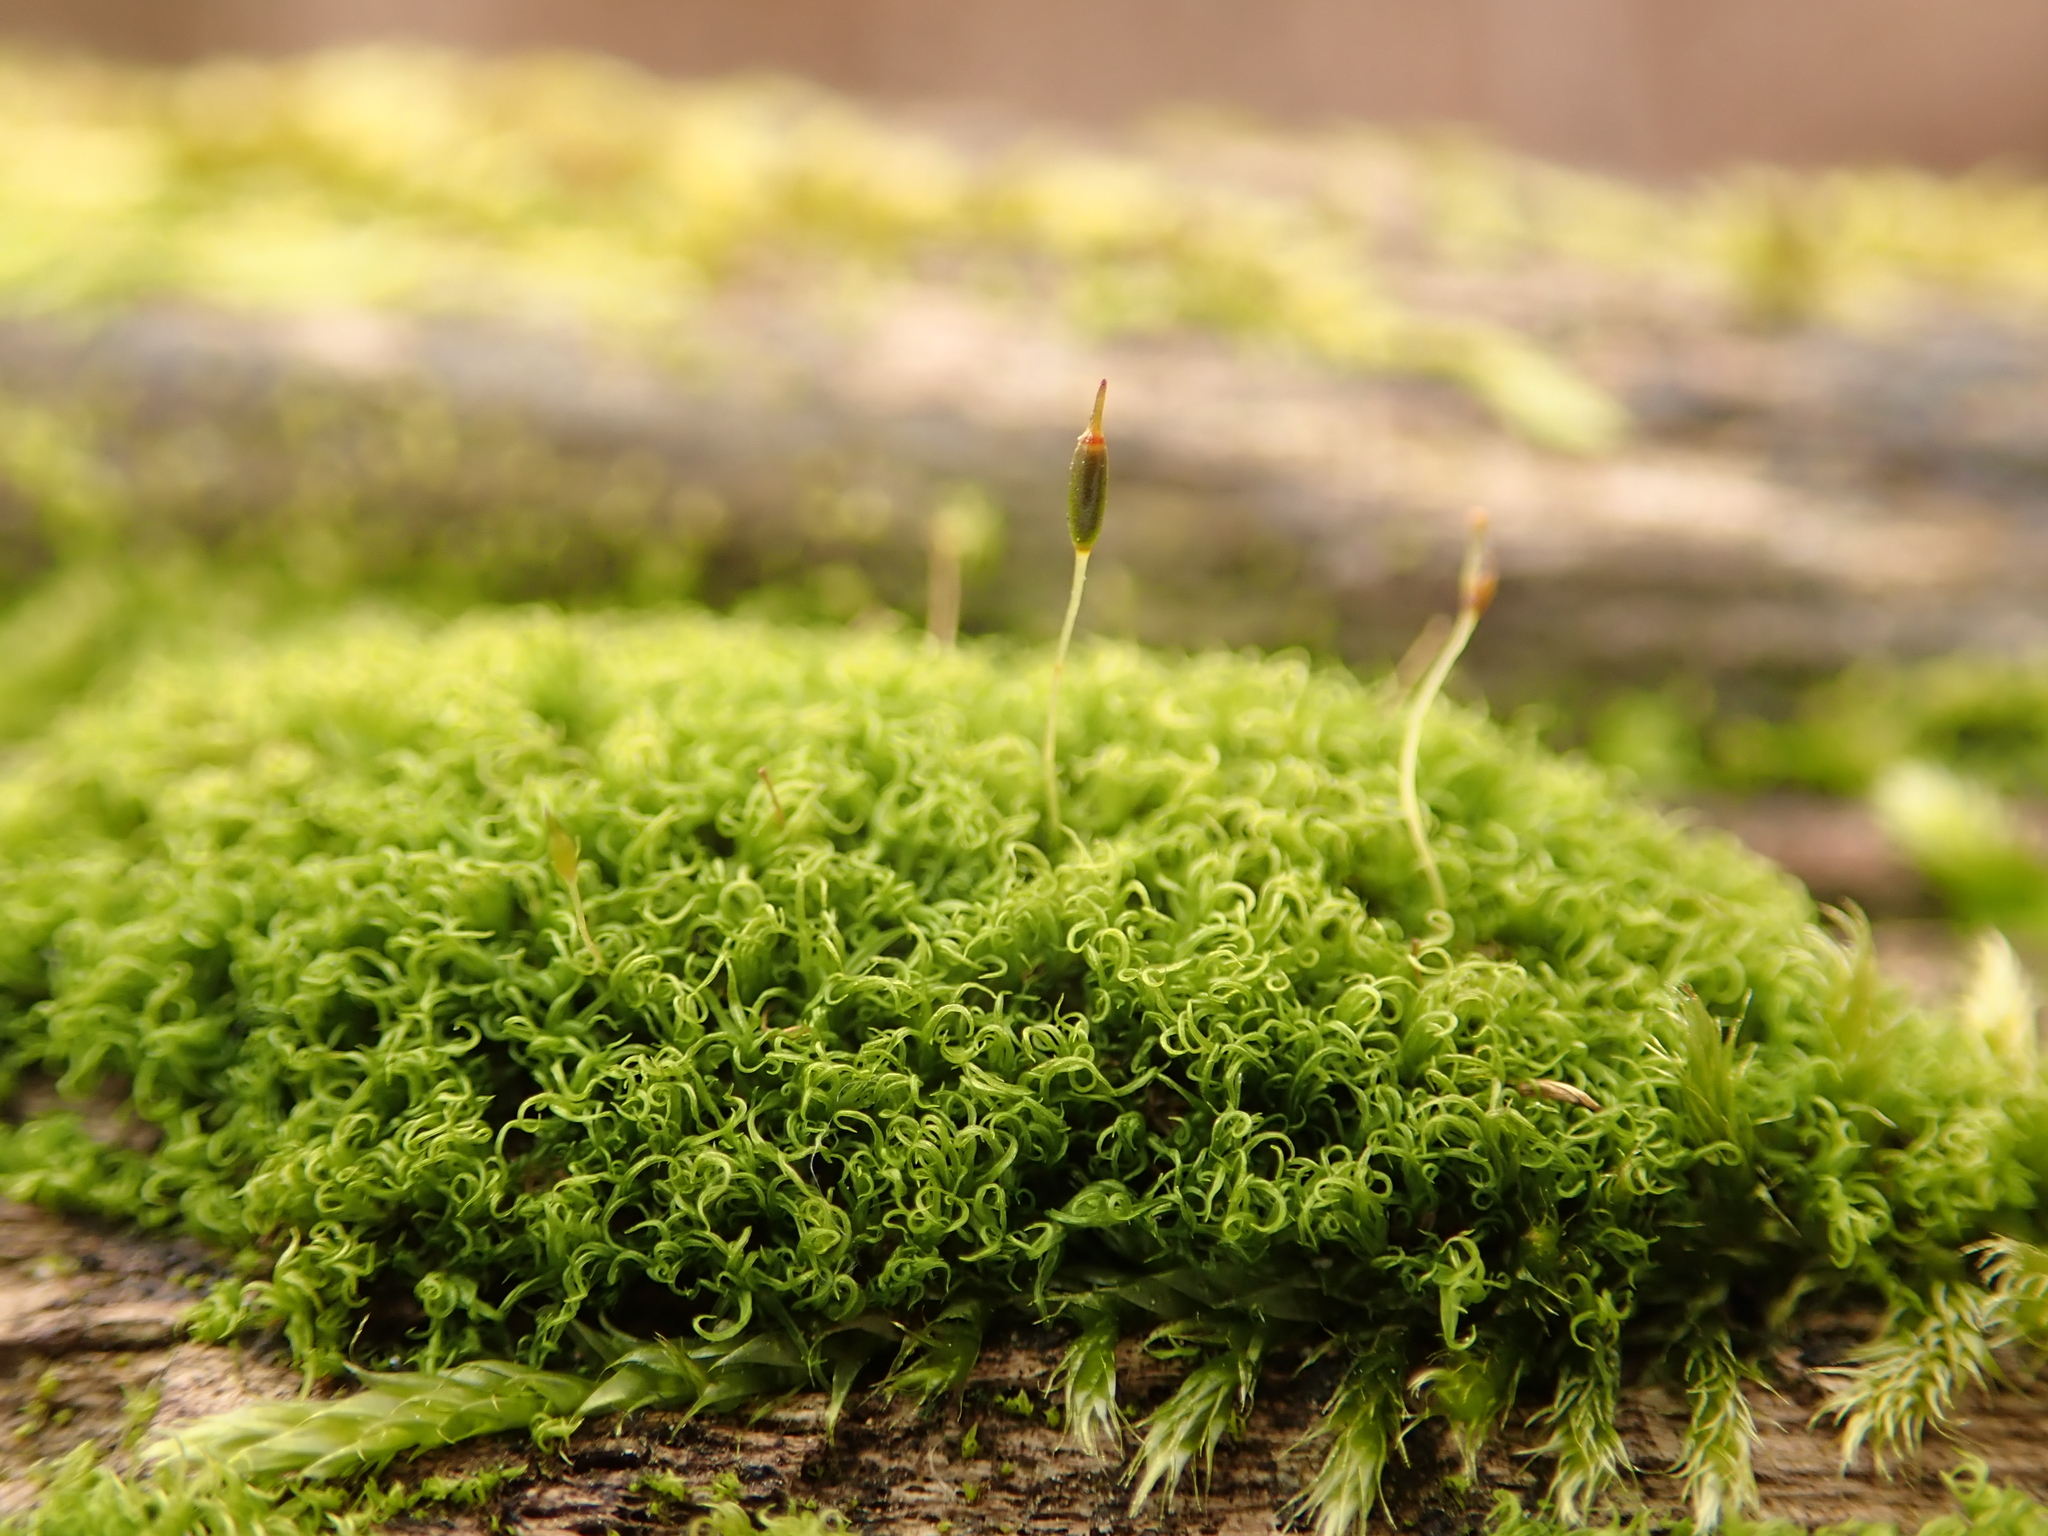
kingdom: Plantae
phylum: Bryophyta
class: Bryopsida
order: Dicranales
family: Rhabdoweisiaceae
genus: Dicranoweisia
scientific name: Dicranoweisia cirrata
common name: Common pincushion
